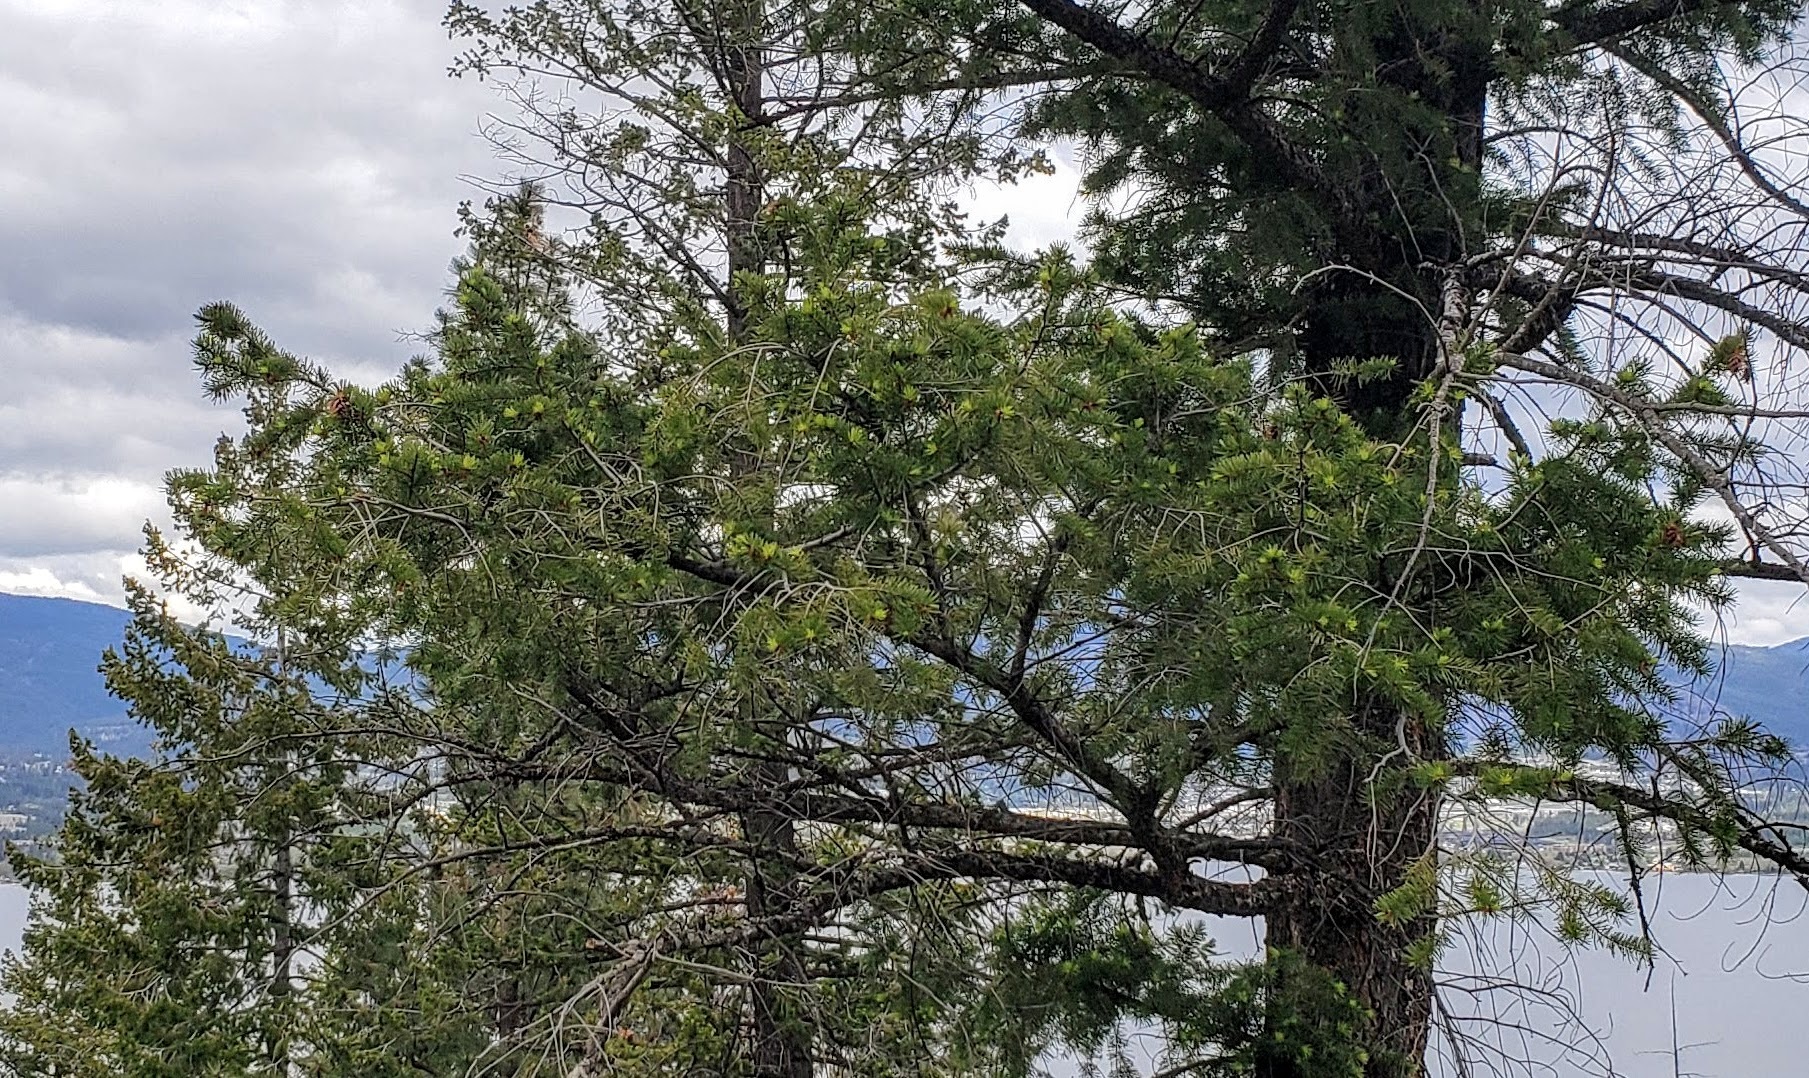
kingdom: Plantae
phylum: Tracheophyta
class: Pinopsida
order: Pinales
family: Pinaceae
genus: Pseudotsuga
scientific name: Pseudotsuga menziesii
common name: Douglas fir
